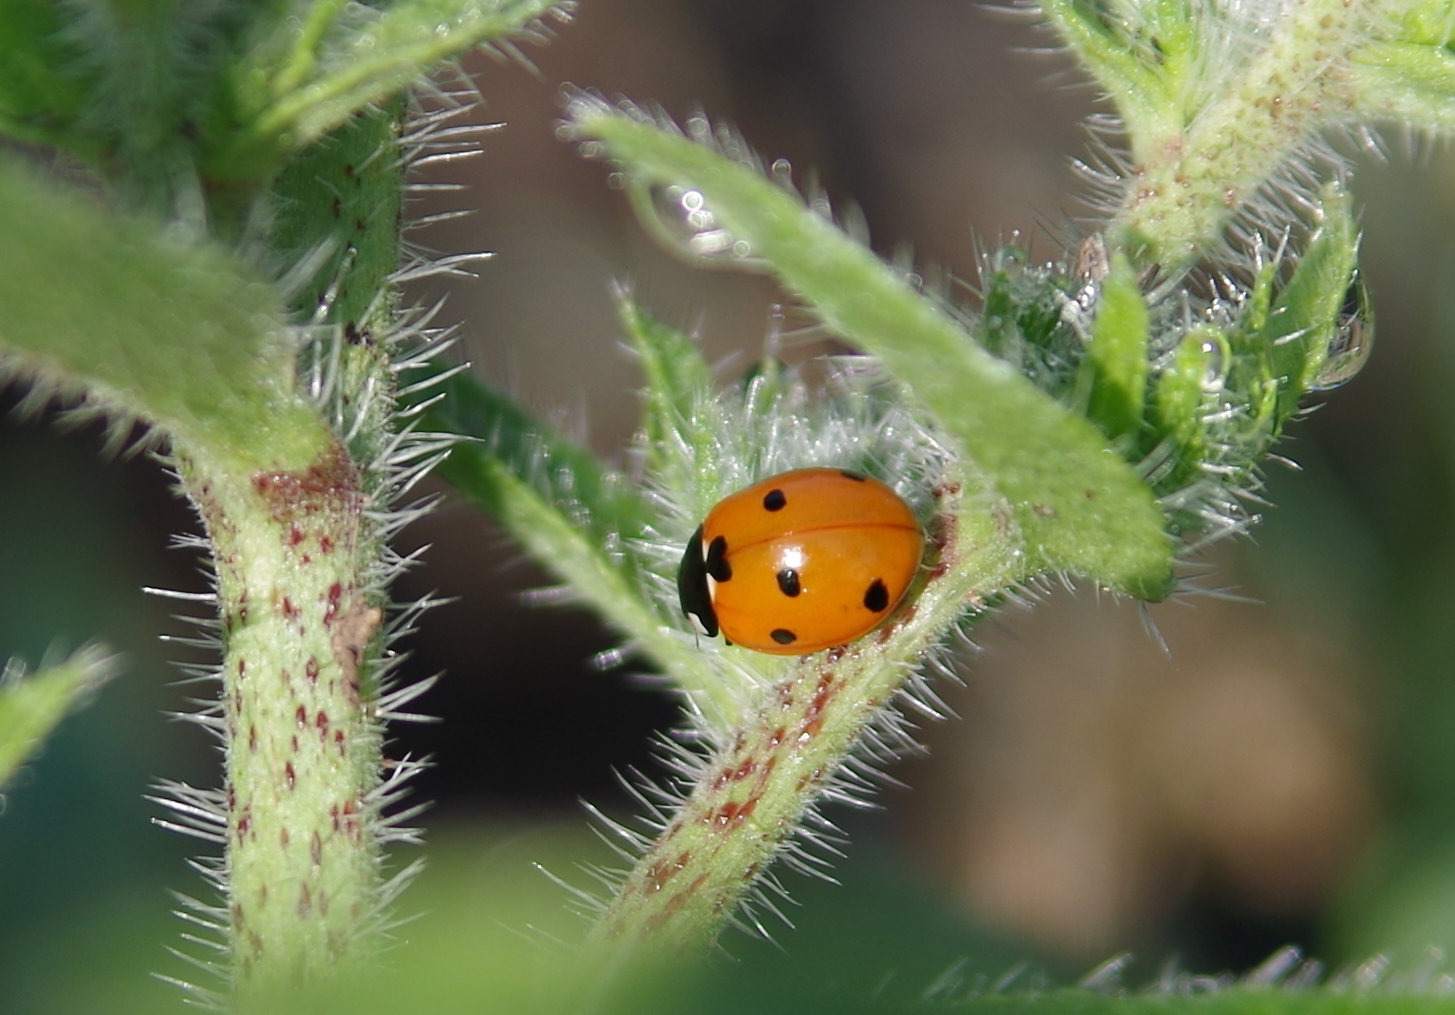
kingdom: Animalia
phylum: Arthropoda
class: Insecta
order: Coleoptera
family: Coccinellidae
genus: Coccinella
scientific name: Coccinella septempunctata
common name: Sevenspotted lady beetle
